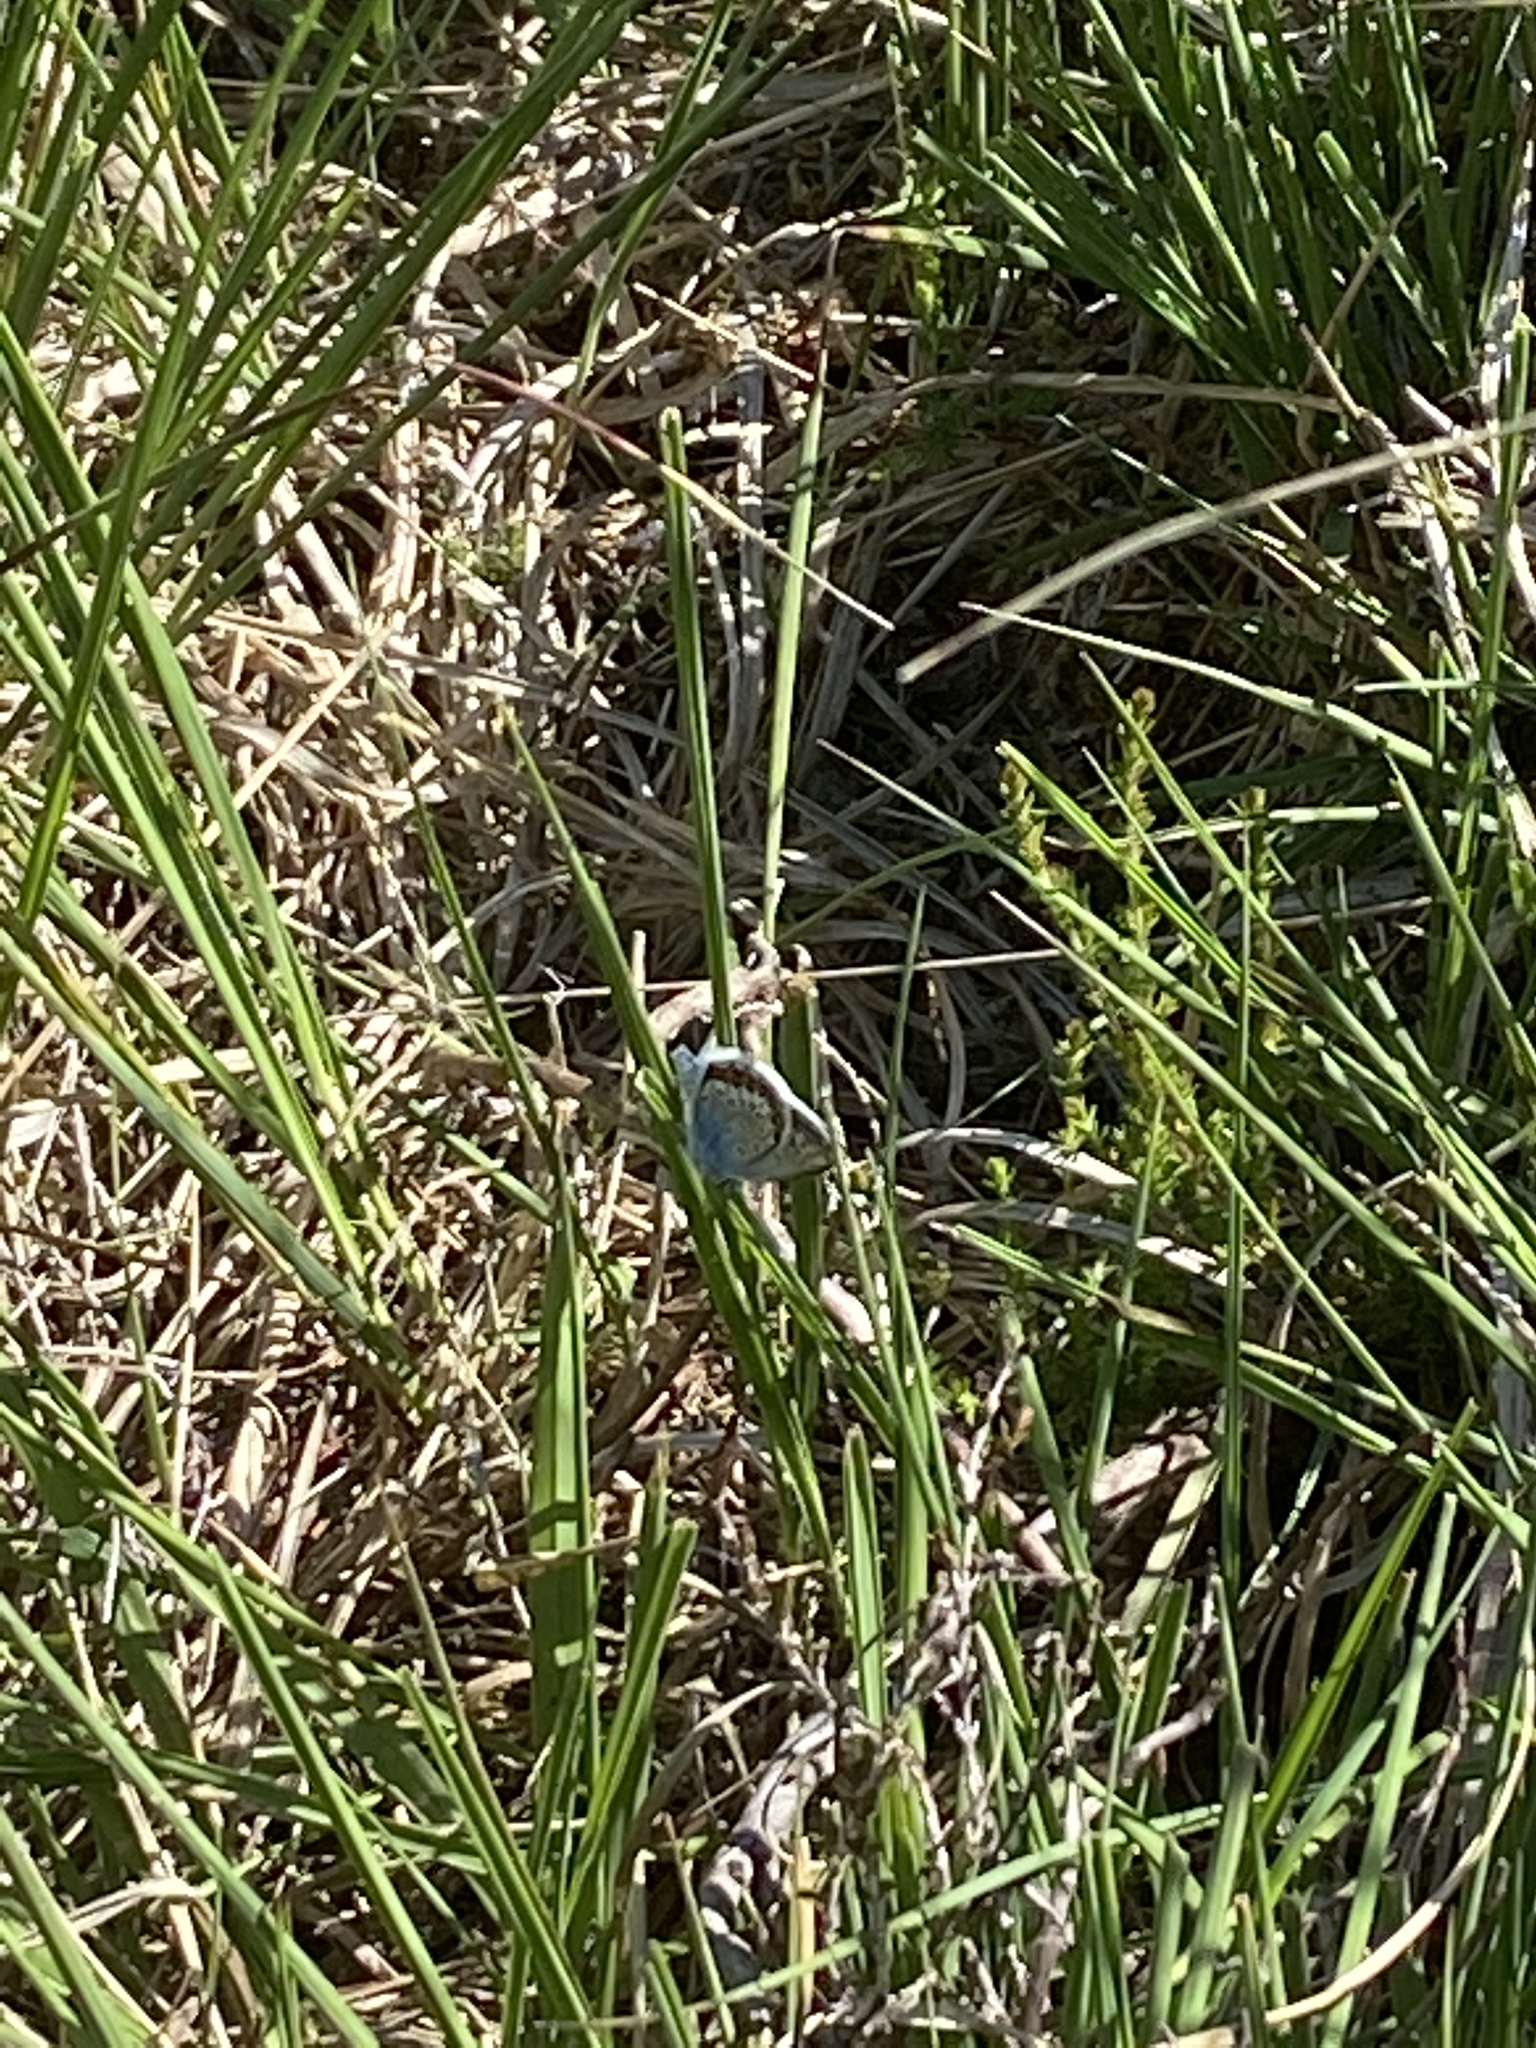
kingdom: Animalia
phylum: Arthropoda
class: Insecta
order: Lepidoptera
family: Lycaenidae
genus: Plebejus
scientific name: Plebejus argus
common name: Silver-studded blue
